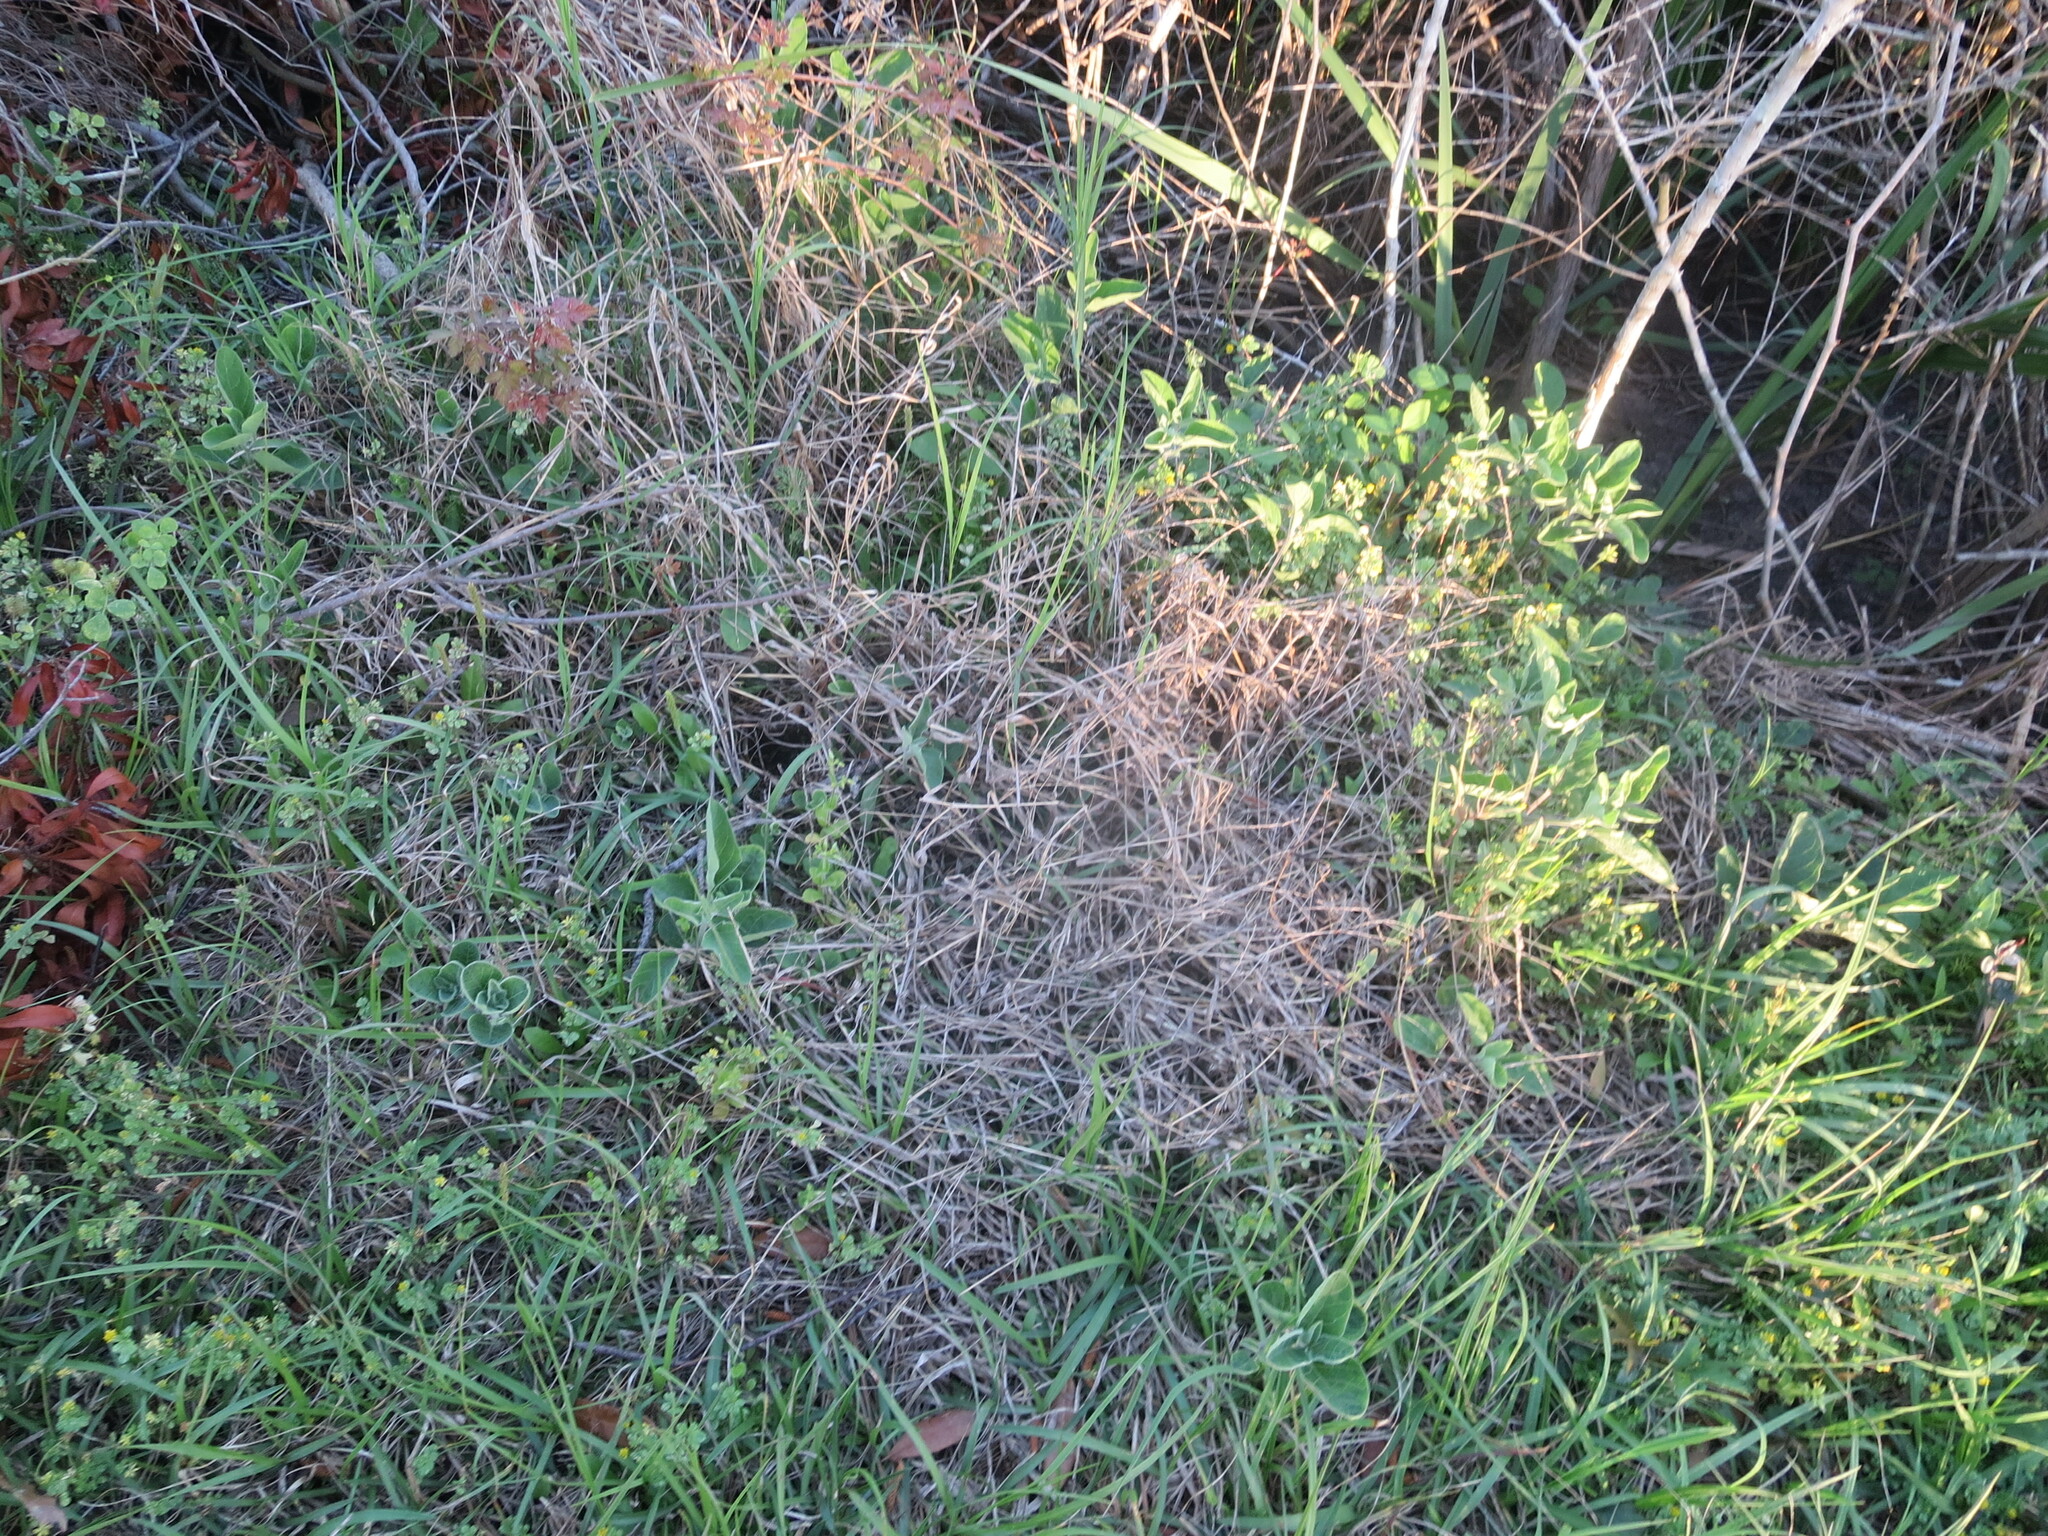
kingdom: Plantae
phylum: Tracheophyta
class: Magnoliopsida
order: Solanales
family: Solanaceae
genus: Physalis
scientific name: Physalis walteri
